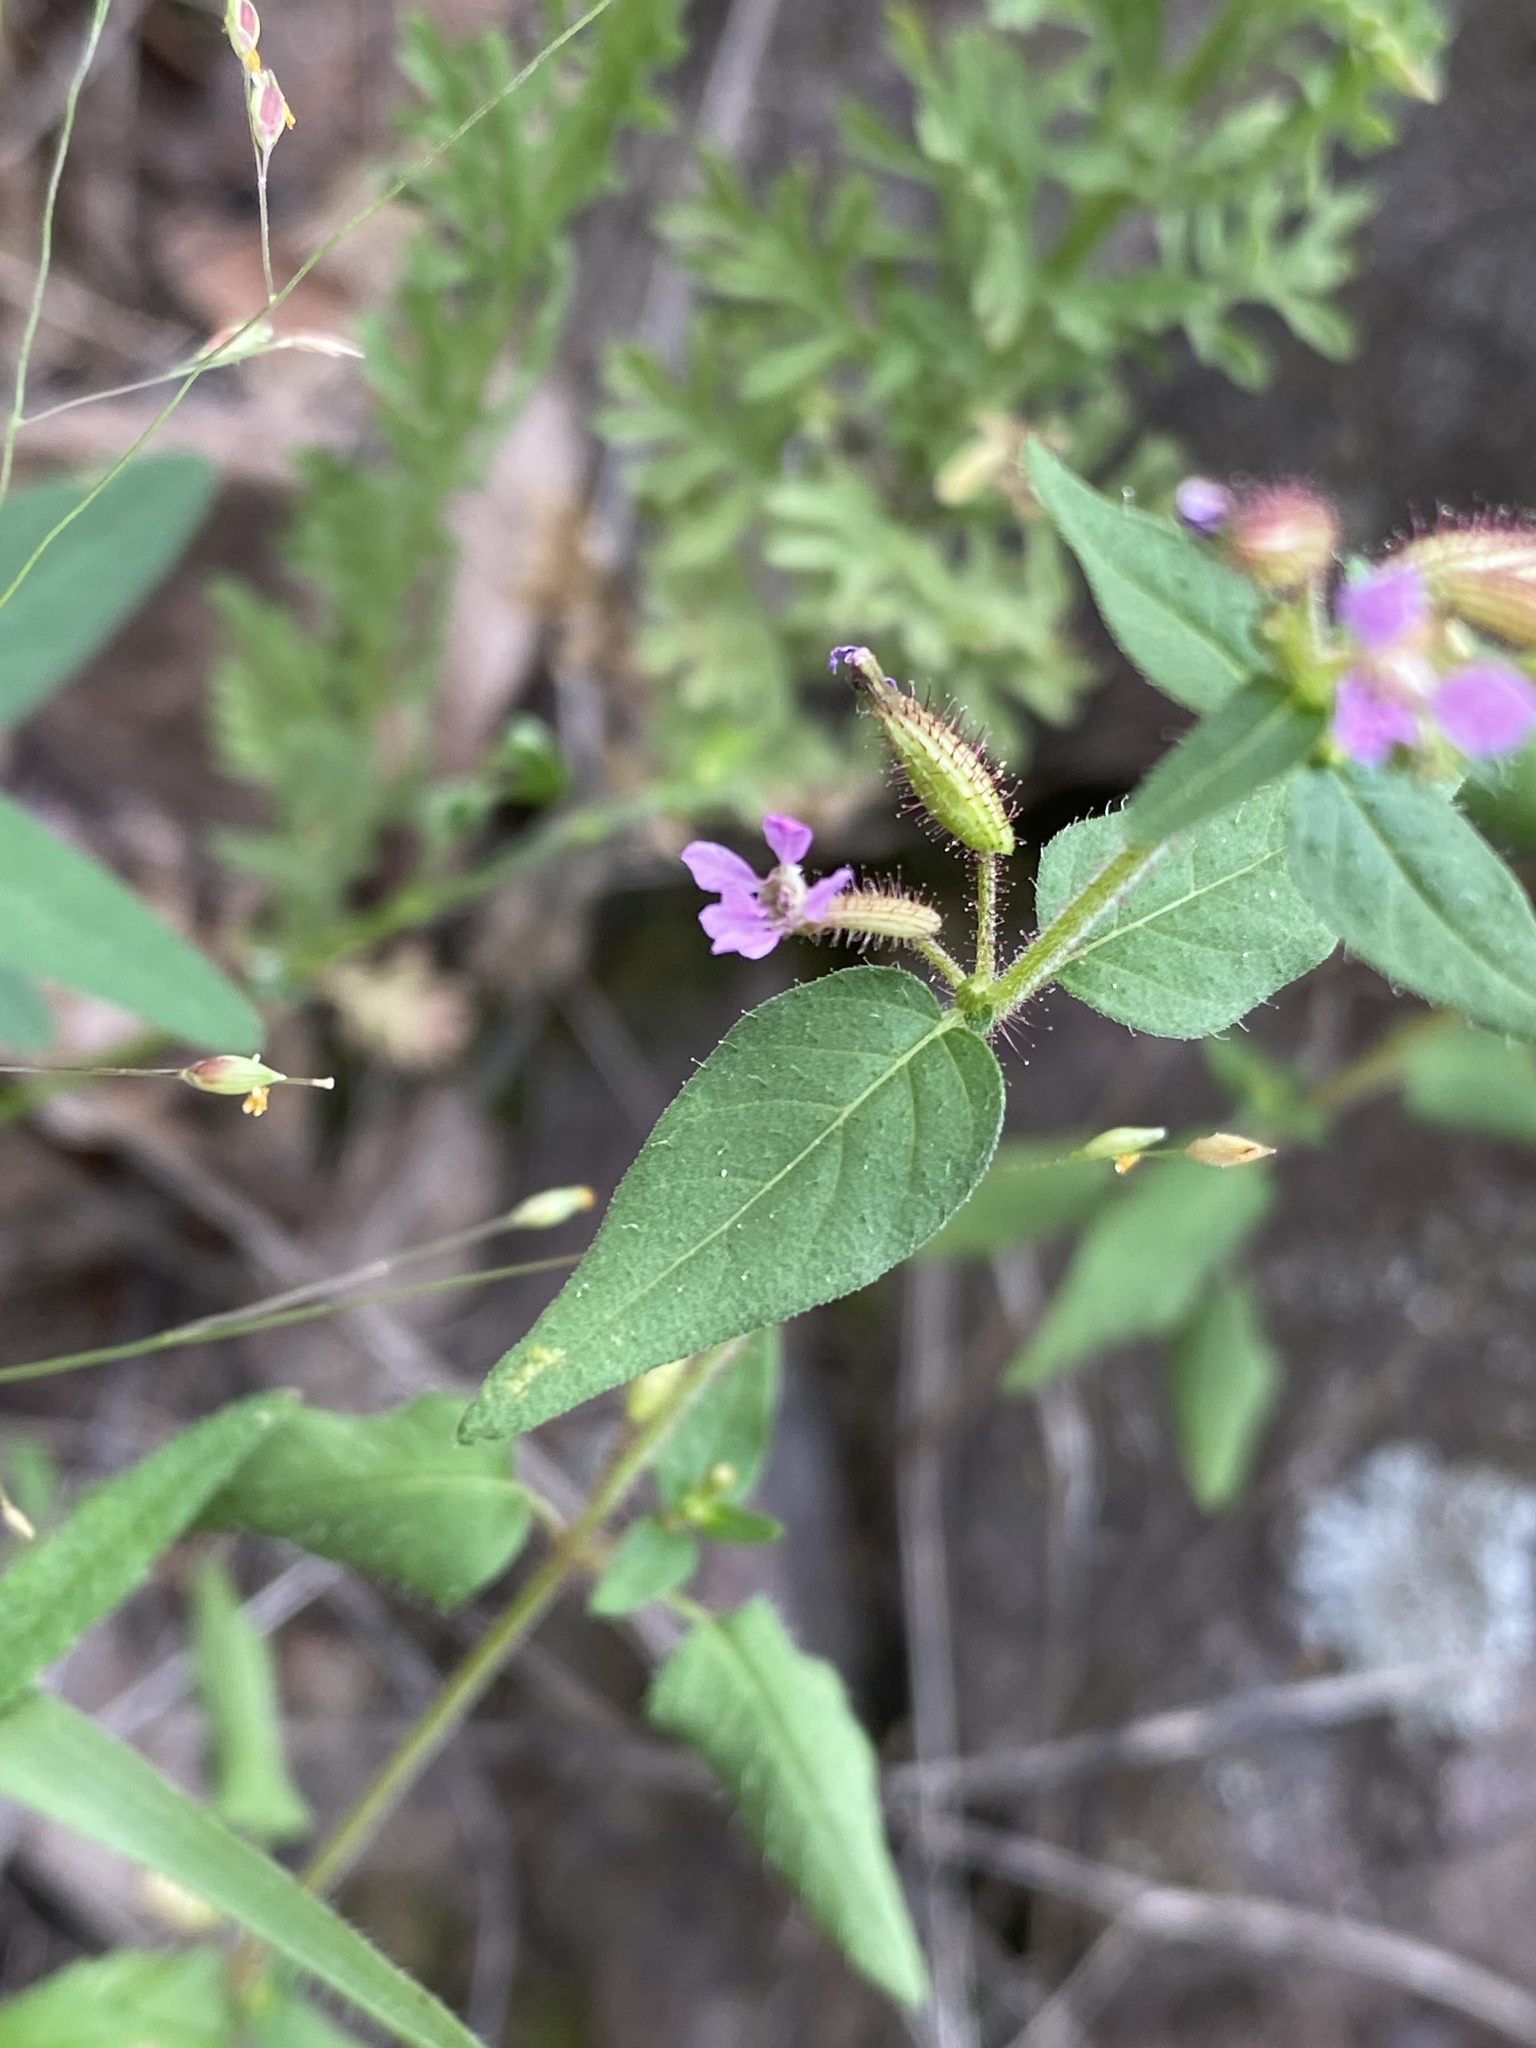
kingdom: Plantae
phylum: Tracheophyta
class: Magnoliopsida
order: Myrtales
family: Lythraceae
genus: Cuphea
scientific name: Cuphea wrightii
